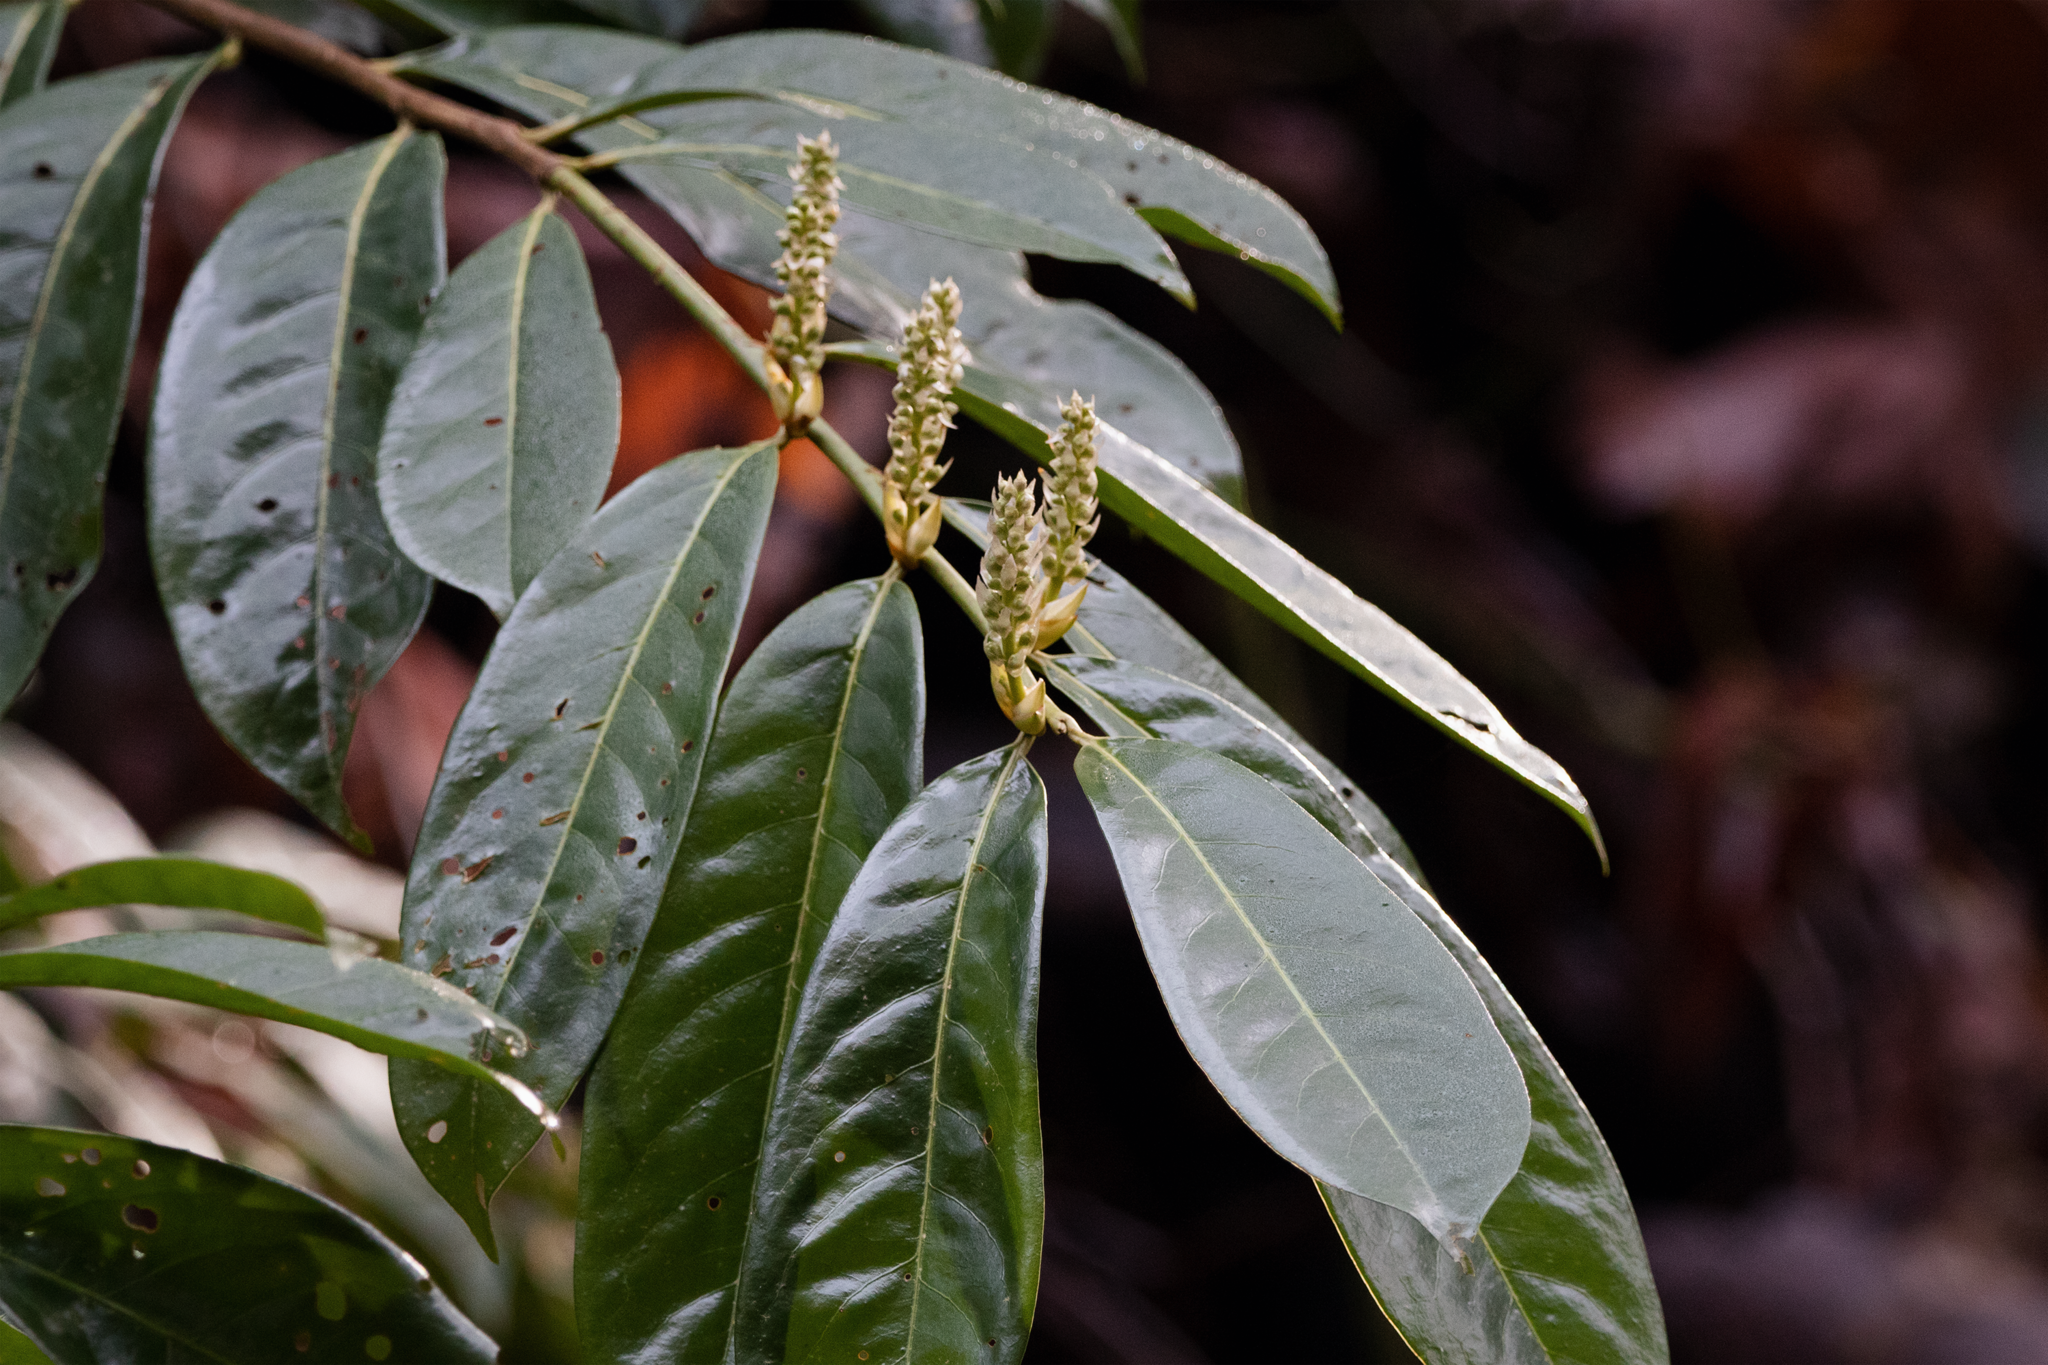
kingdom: Plantae
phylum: Tracheophyta
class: Magnoliopsida
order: Rosales
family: Rosaceae
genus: Prunus
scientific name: Prunus laurocerasus
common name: Cherry laurel
